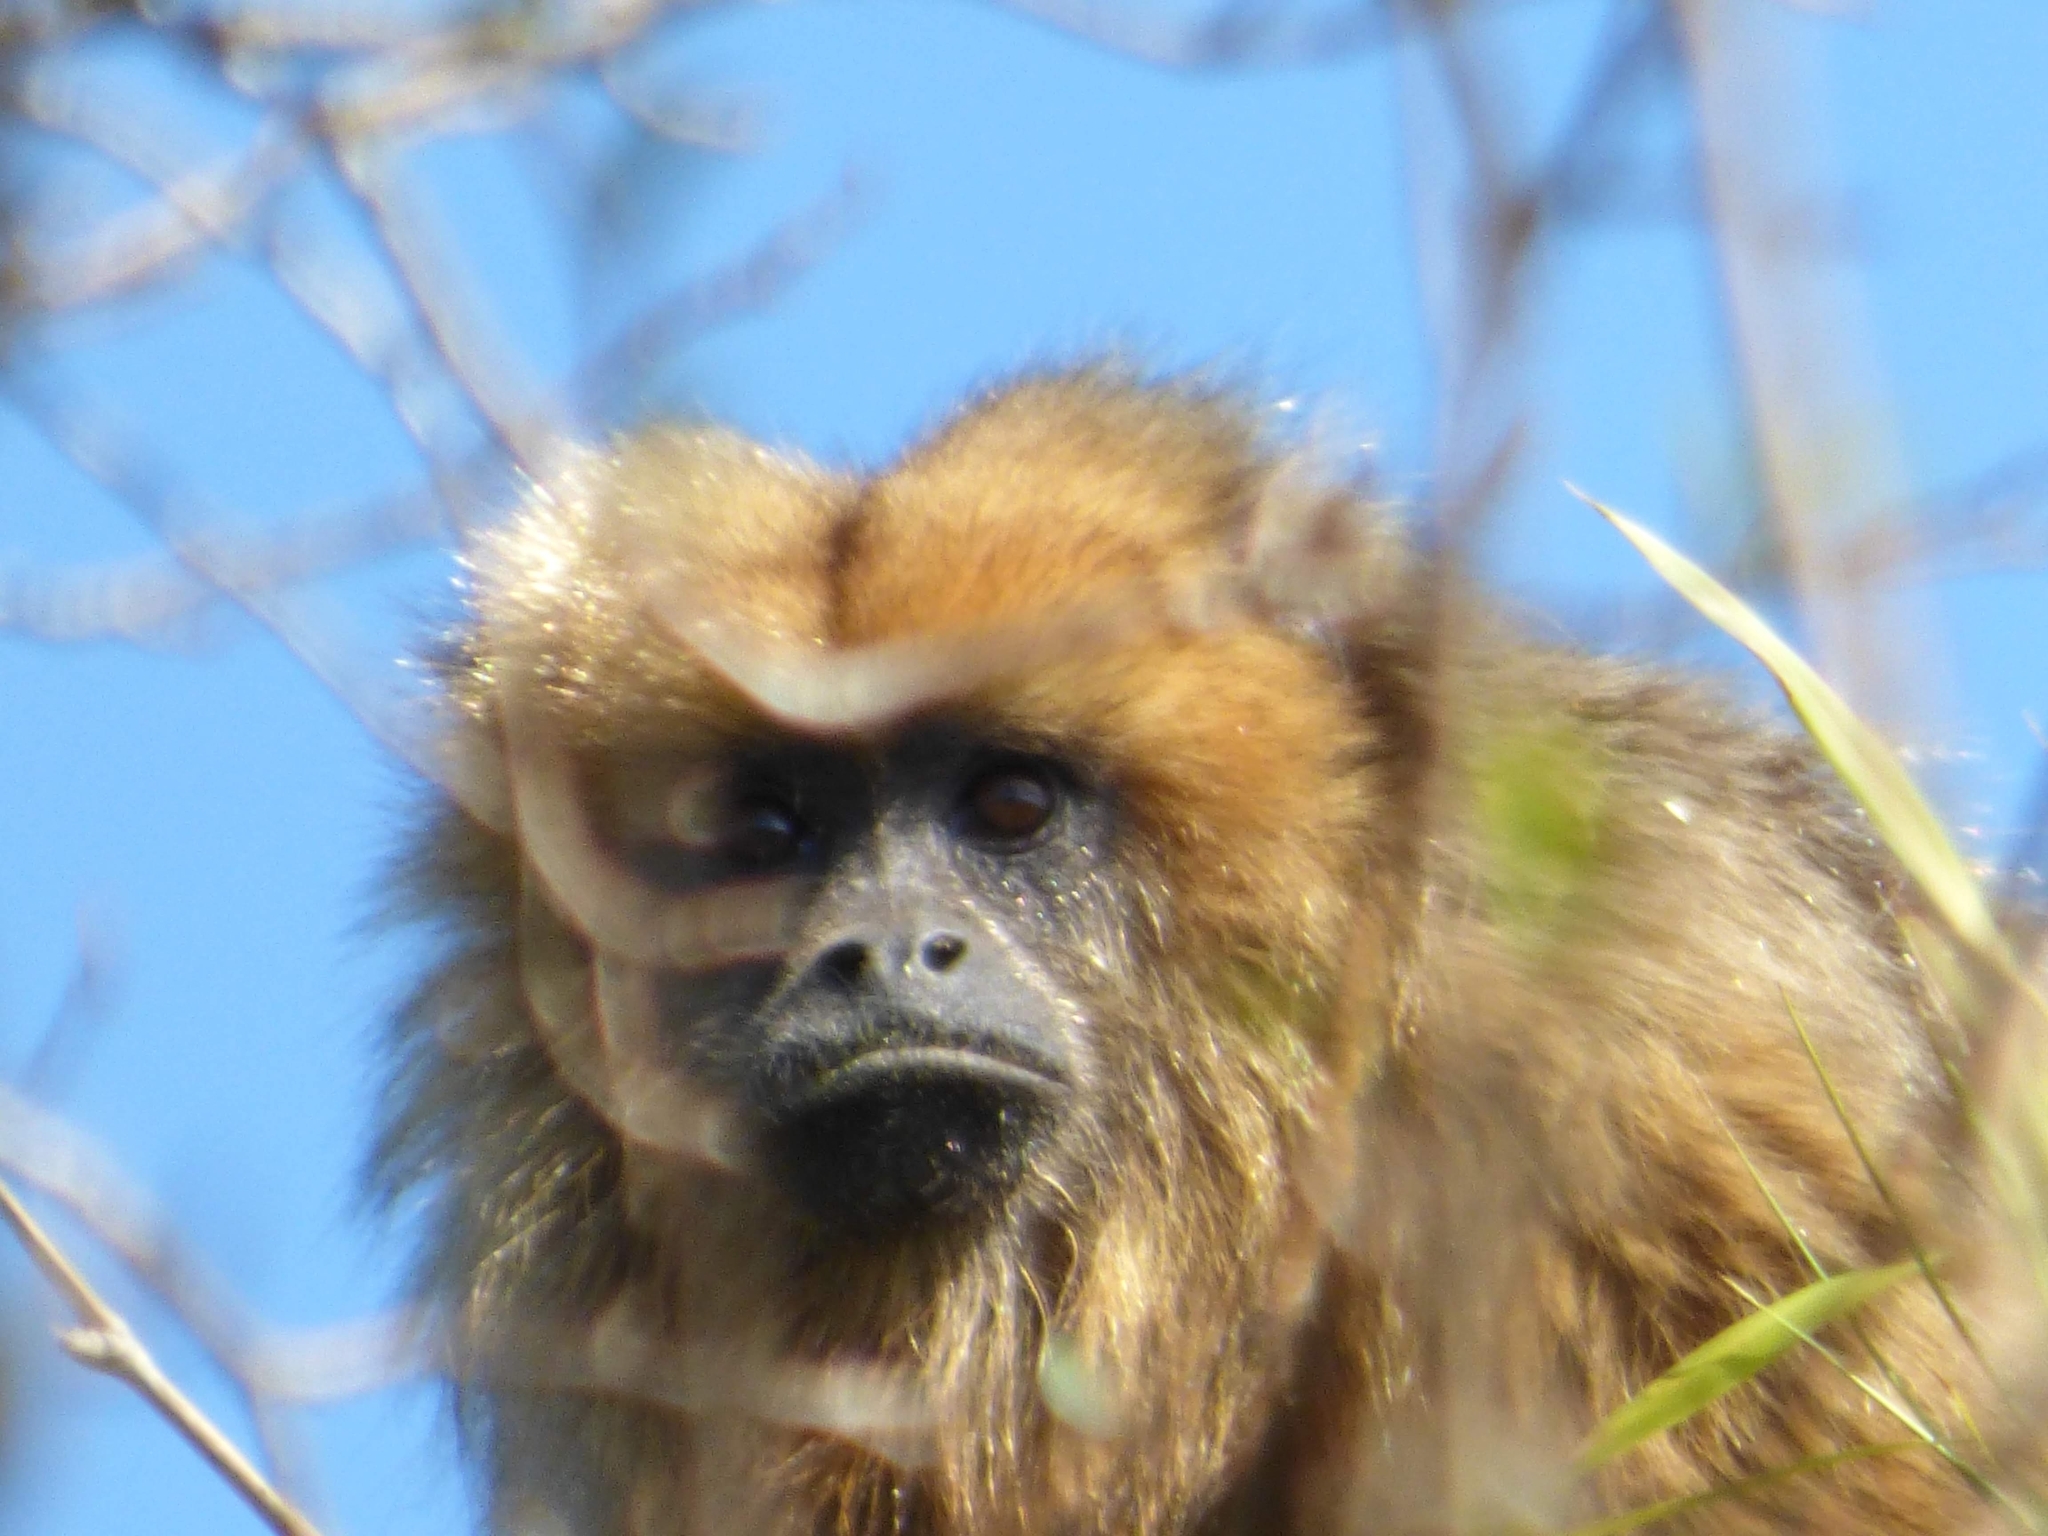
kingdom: Animalia
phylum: Chordata
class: Mammalia
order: Primates
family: Atelidae
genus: Alouatta
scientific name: Alouatta caraya
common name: Black howler
